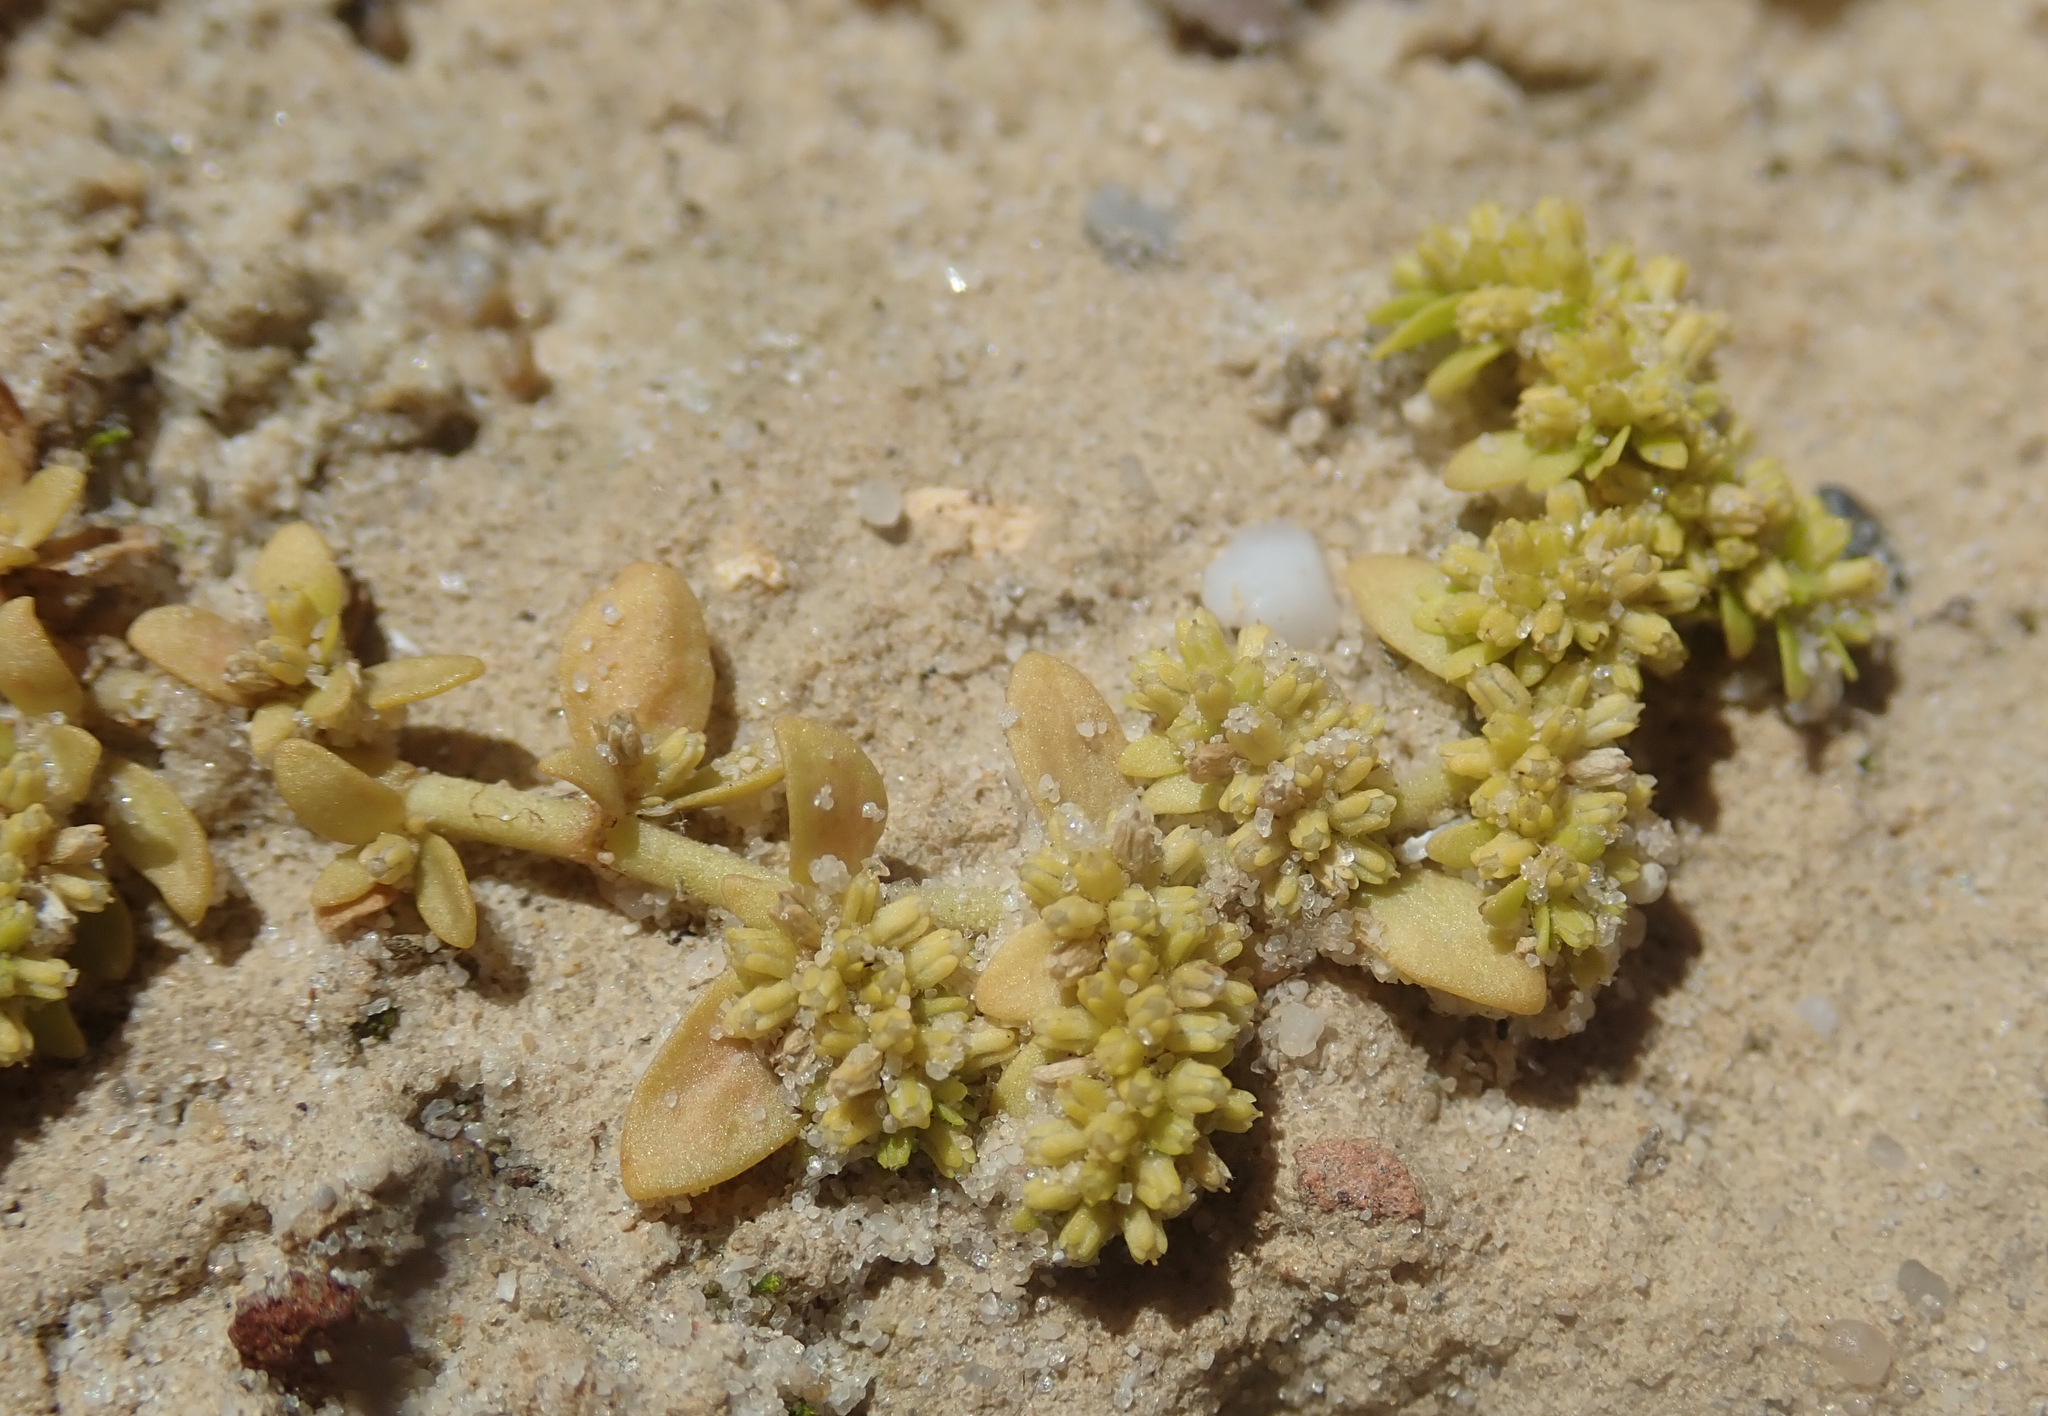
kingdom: Plantae
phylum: Tracheophyta
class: Magnoliopsida
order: Caryophyllales
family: Caryophyllaceae
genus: Herniaria
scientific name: Herniaria glabra
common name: Smooth rupturewort
